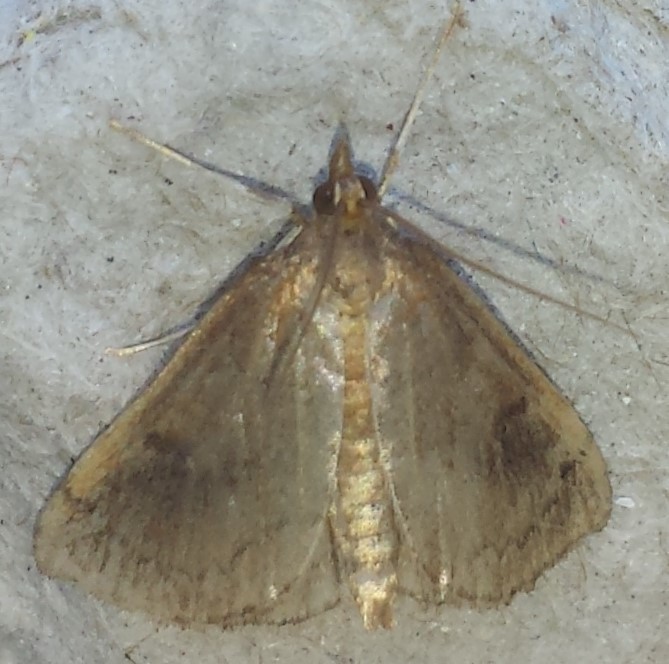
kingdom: Animalia
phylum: Arthropoda
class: Insecta
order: Lepidoptera
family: Crambidae
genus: Fumibotys
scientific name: Fumibotys fumalis
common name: Mint root borer moth
